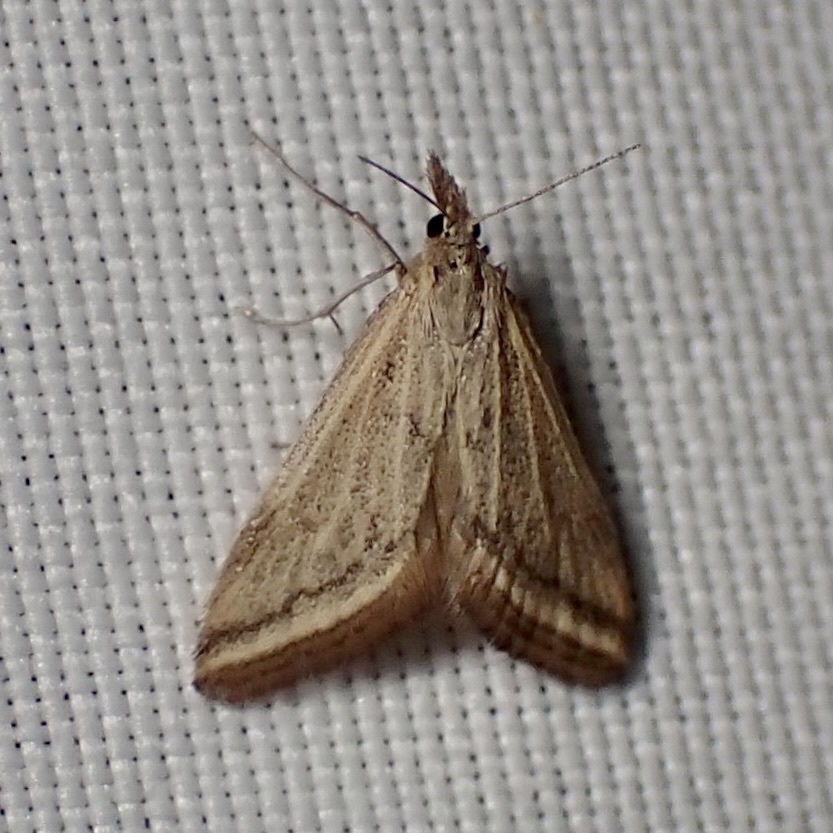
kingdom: Animalia
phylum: Arthropoda
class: Insecta
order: Lepidoptera
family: Crambidae
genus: Microtheoris
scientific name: Microtheoris ophionalis
